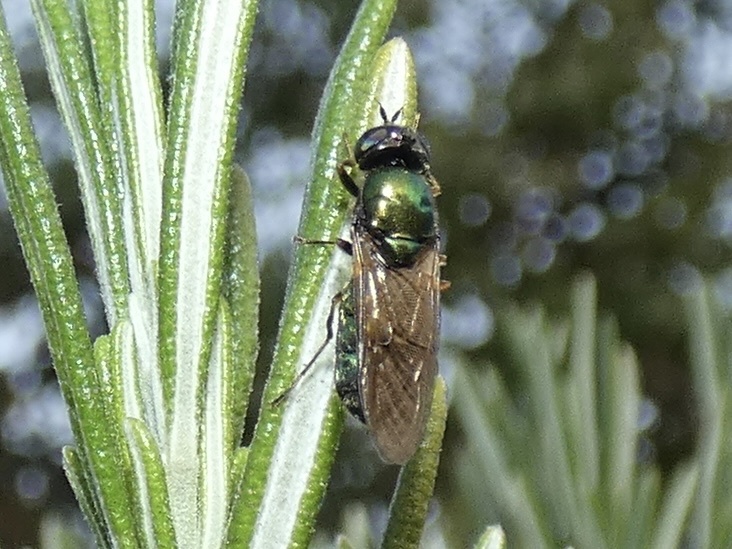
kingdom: Animalia
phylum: Arthropoda
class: Insecta
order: Diptera
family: Stratiomyidae
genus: Chloromyia
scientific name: Chloromyia formosa
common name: Soldier fly
